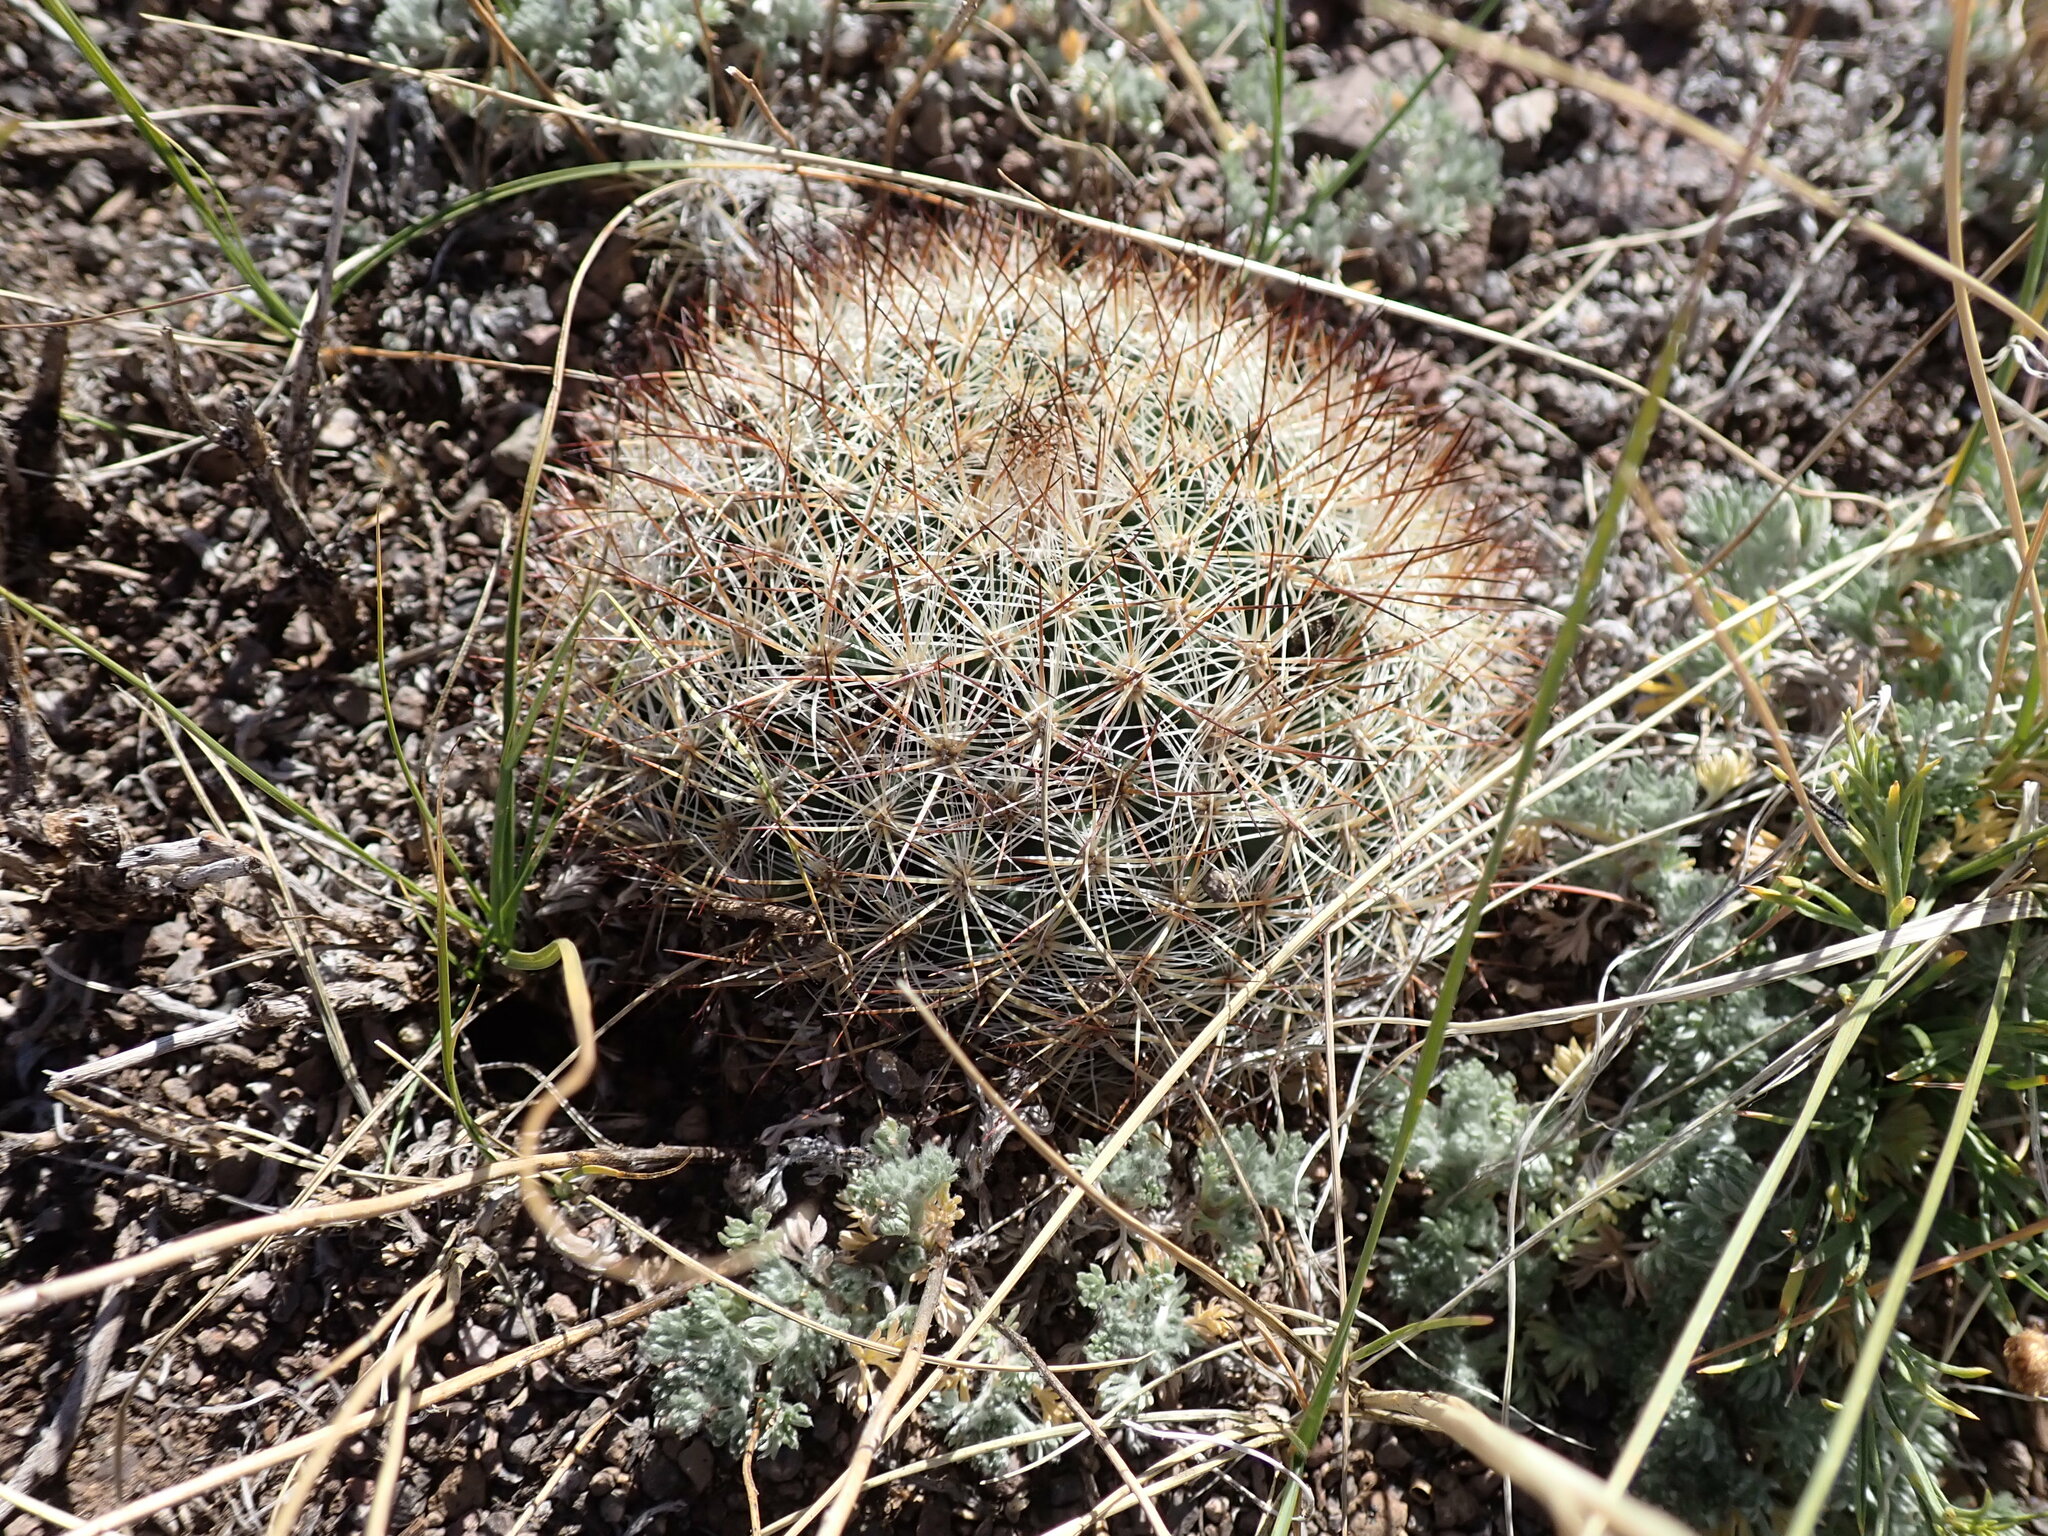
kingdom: Plantae
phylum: Tracheophyta
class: Magnoliopsida
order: Caryophyllales
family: Cactaceae
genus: Pediocactus
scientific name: Pediocactus simpsonii
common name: Simpson's hedgehog cactus
